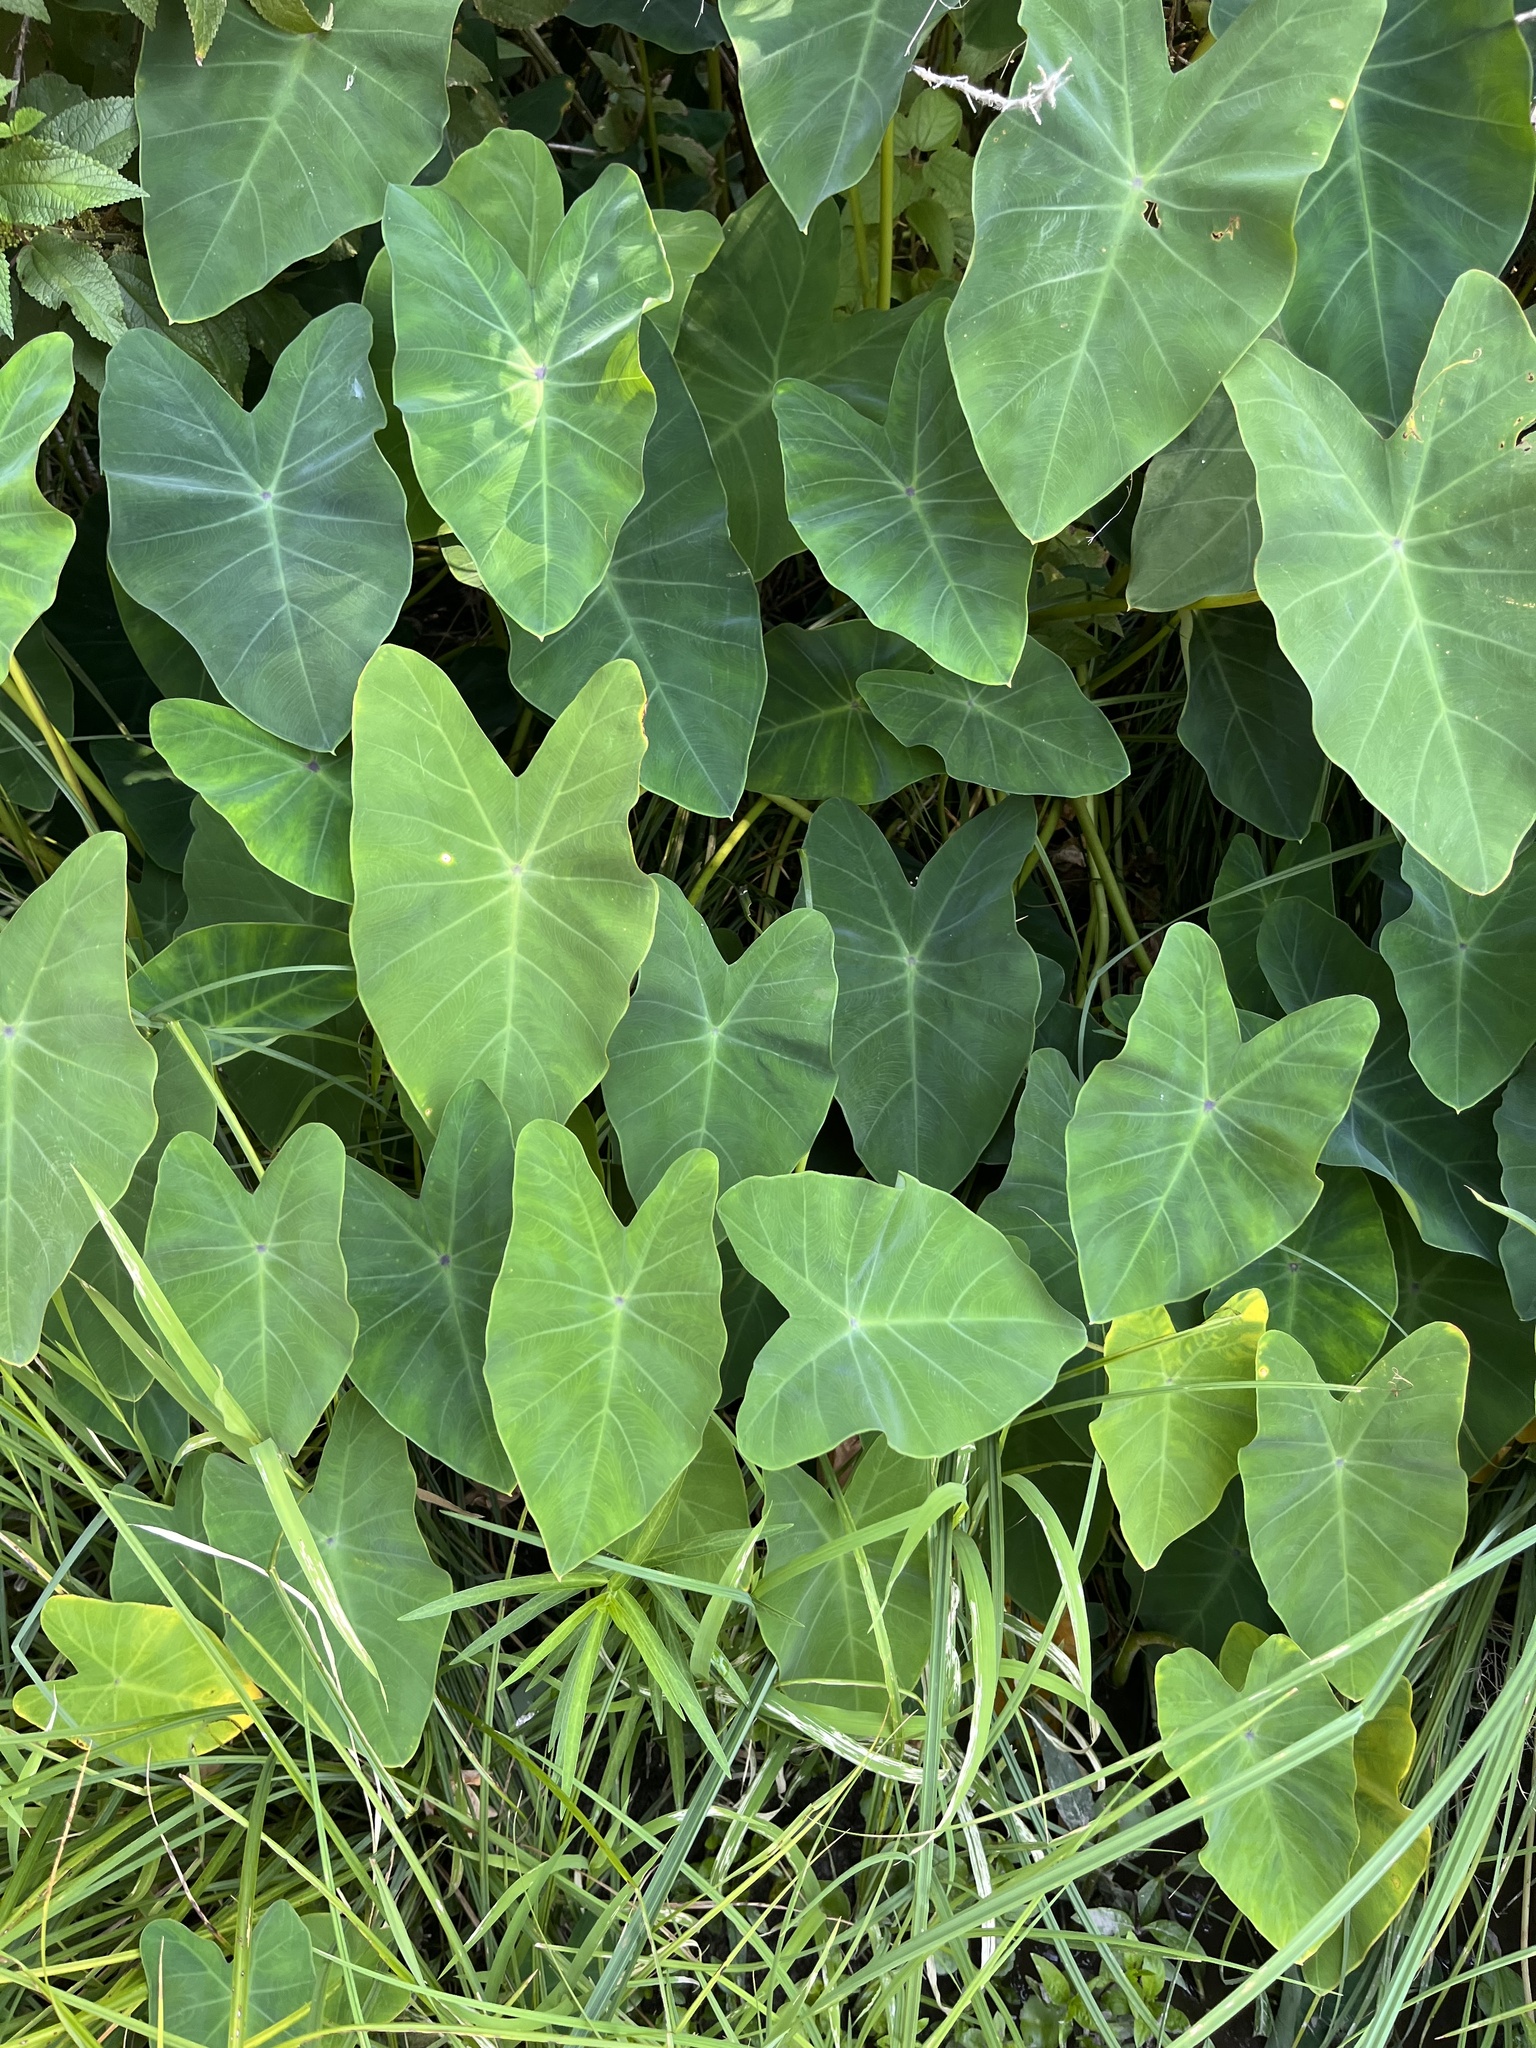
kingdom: Plantae
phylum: Tracheophyta
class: Liliopsida
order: Alismatales
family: Araceae
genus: Colocasia
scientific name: Colocasia esculenta
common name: Taro
